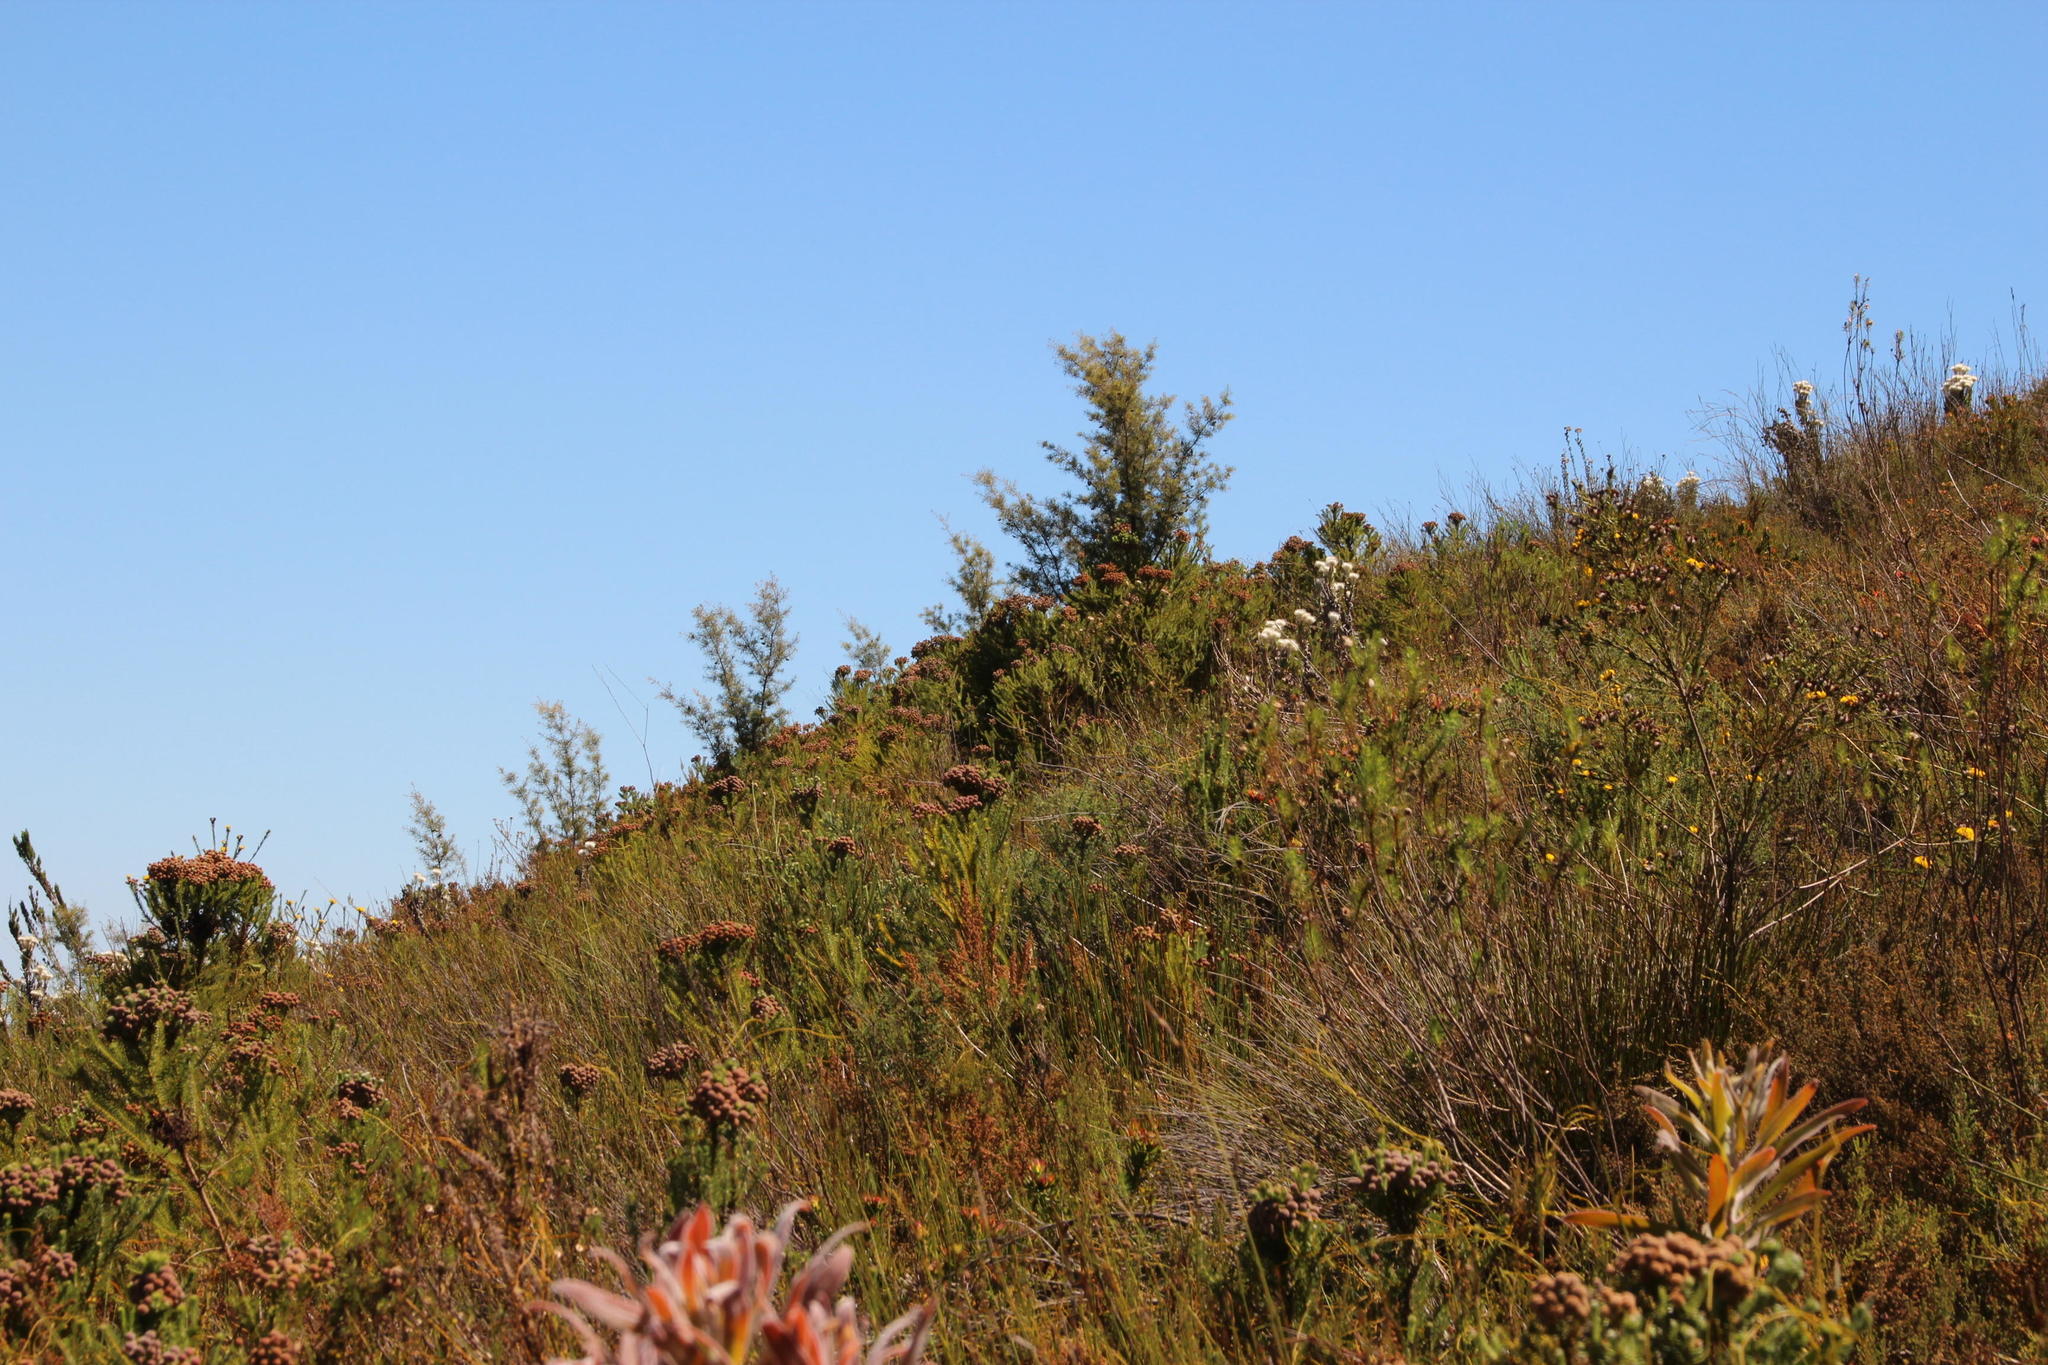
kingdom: Plantae
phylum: Tracheophyta
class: Magnoliopsida
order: Proteales
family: Proteaceae
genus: Hakea
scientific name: Hakea sericea
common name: Needle bush
